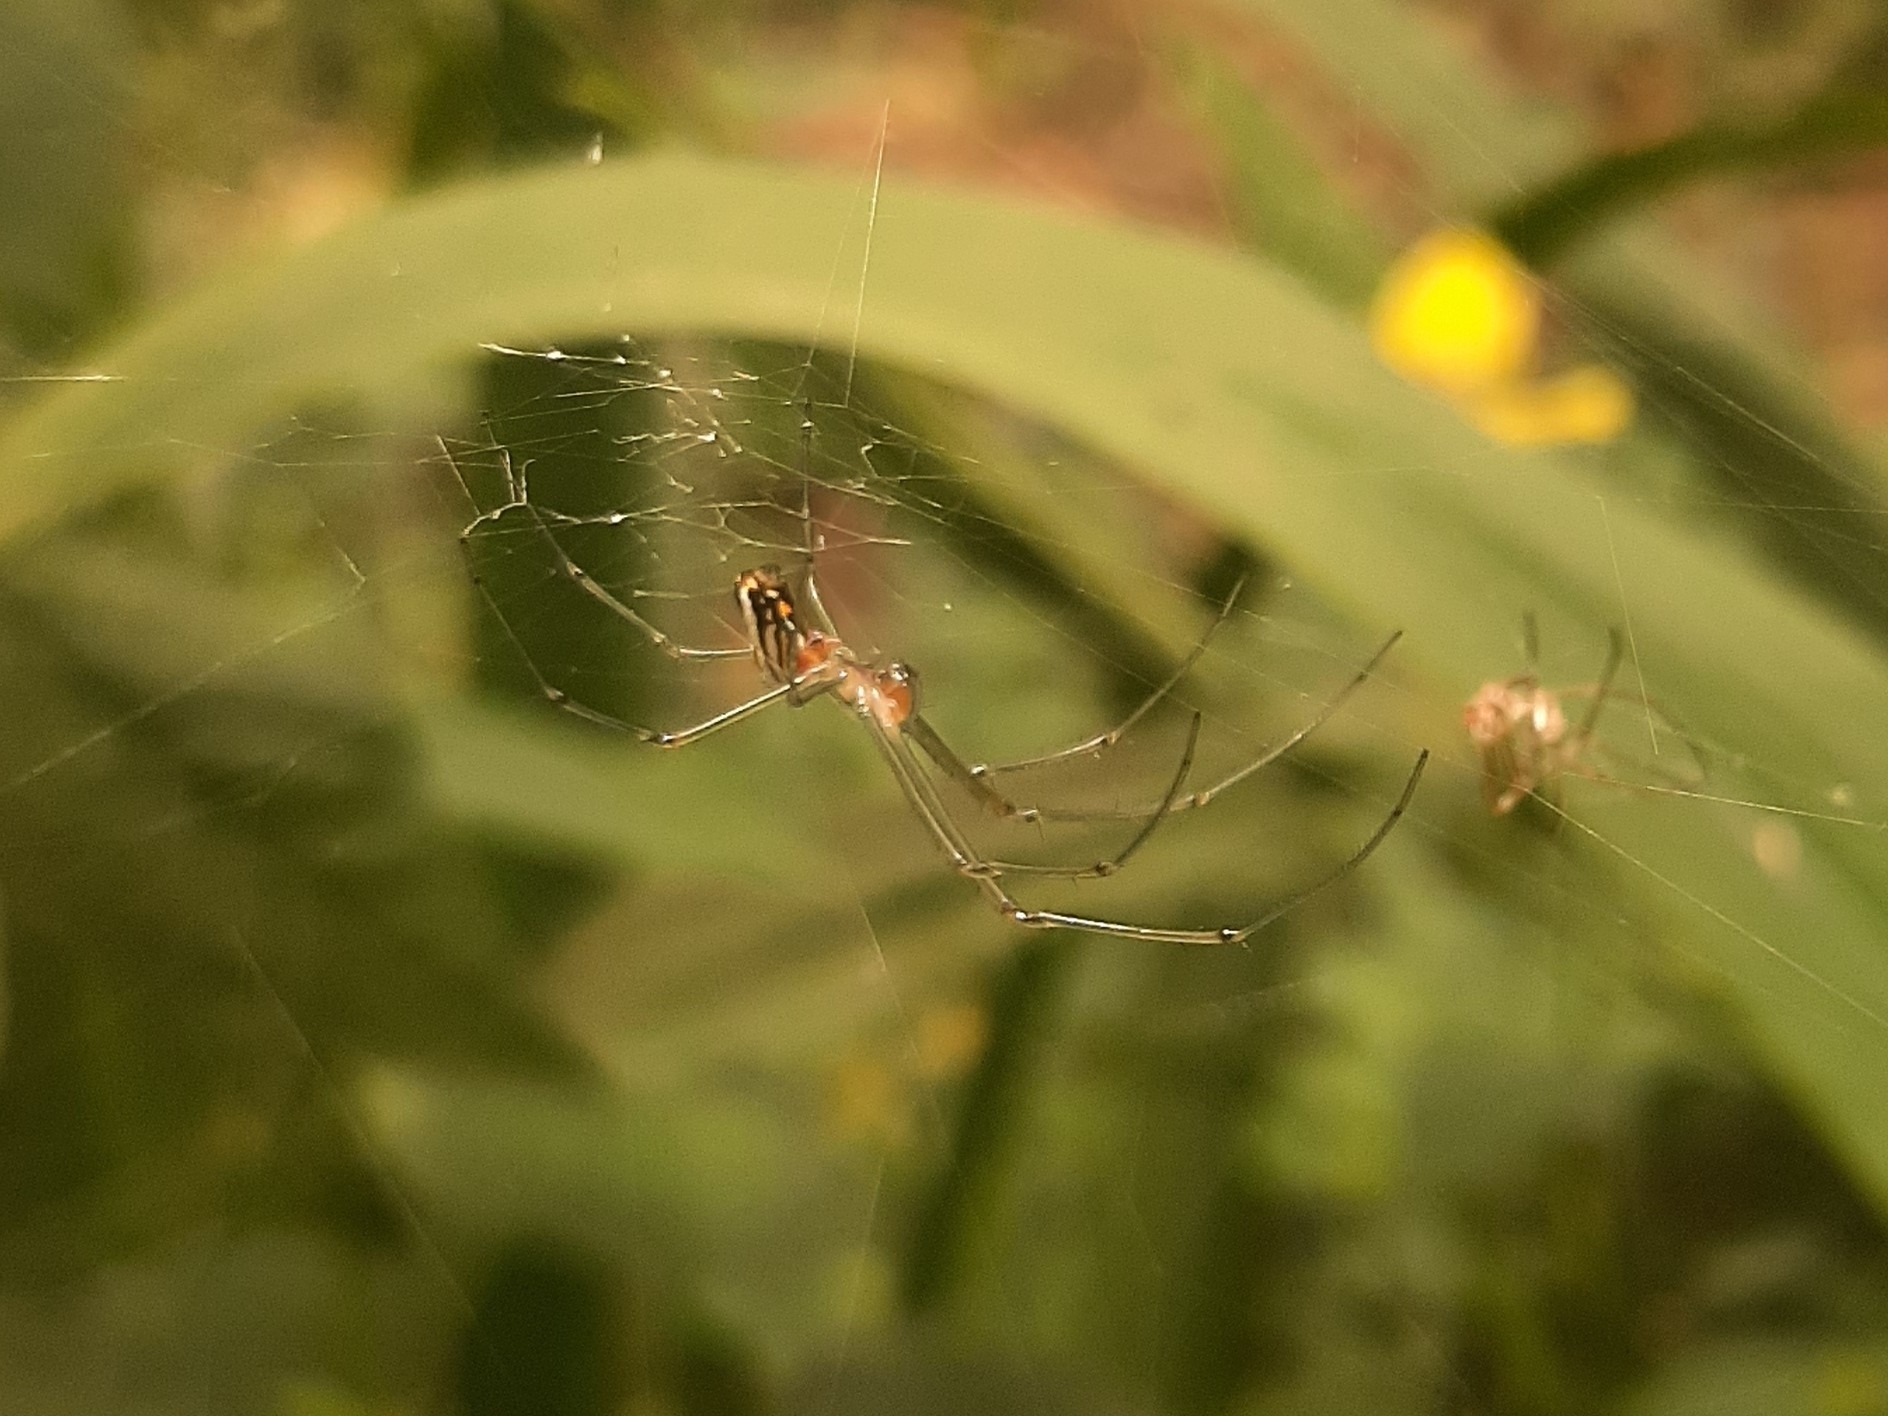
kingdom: Animalia
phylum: Arthropoda
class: Arachnida
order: Araneae
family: Tetragnathidae
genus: Leucauge
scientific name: Leucauge argyra
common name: Longjawed orb weavers
